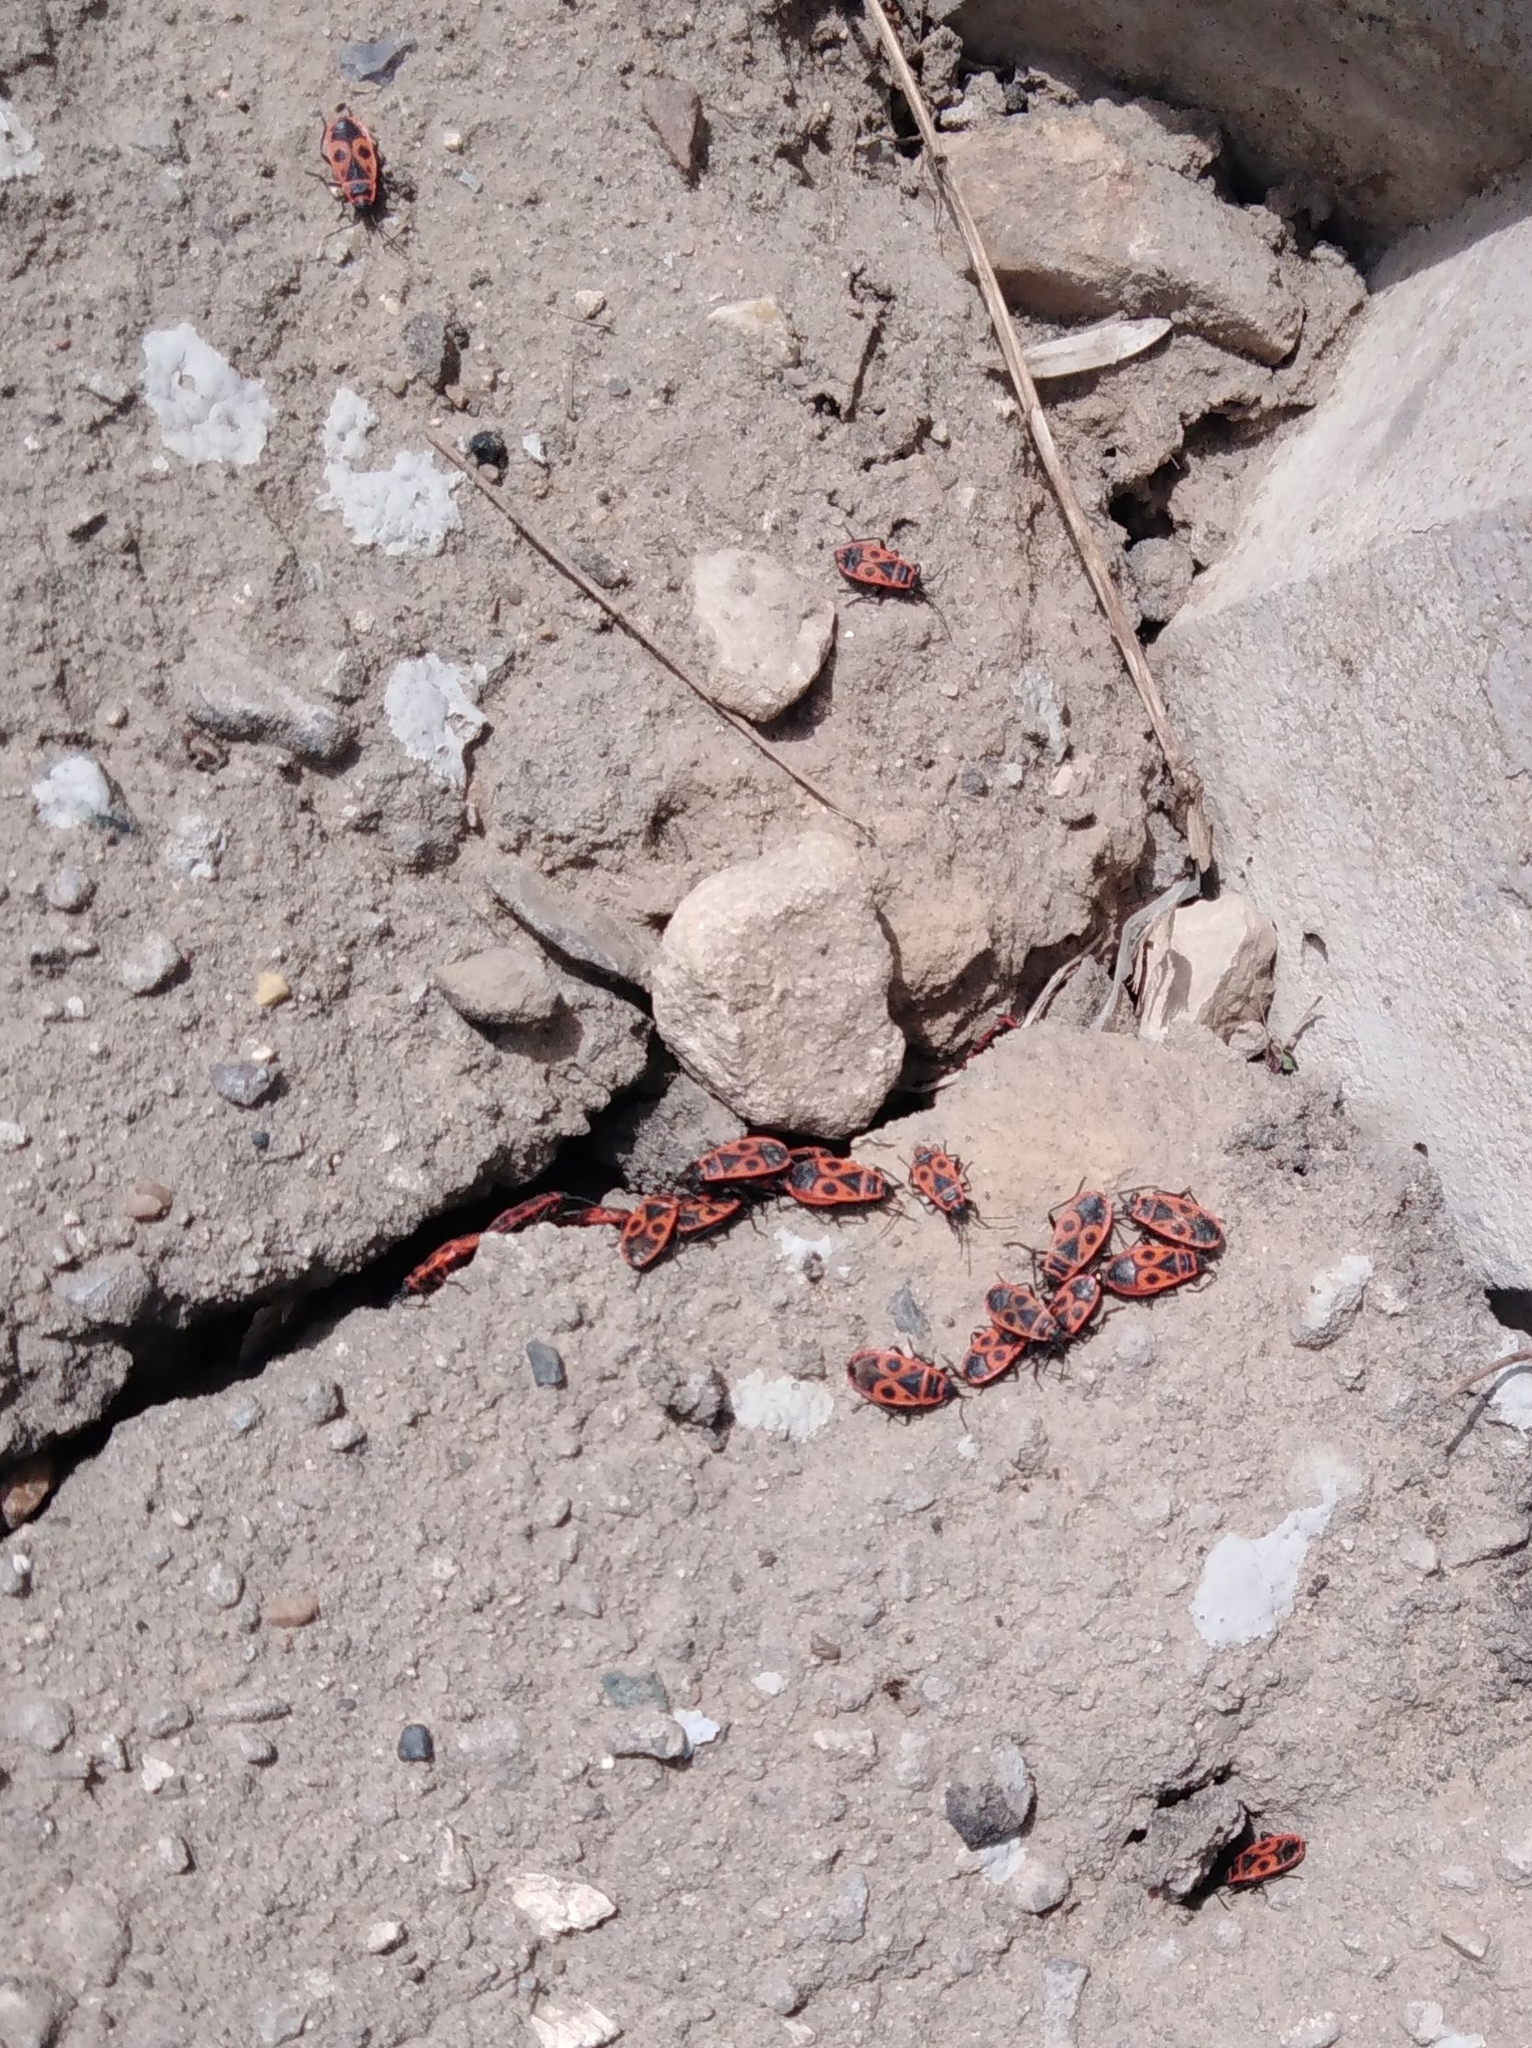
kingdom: Animalia
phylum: Arthropoda
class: Insecta
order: Hemiptera
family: Pyrrhocoridae
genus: Pyrrhocoris
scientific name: Pyrrhocoris apterus
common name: Firebug
